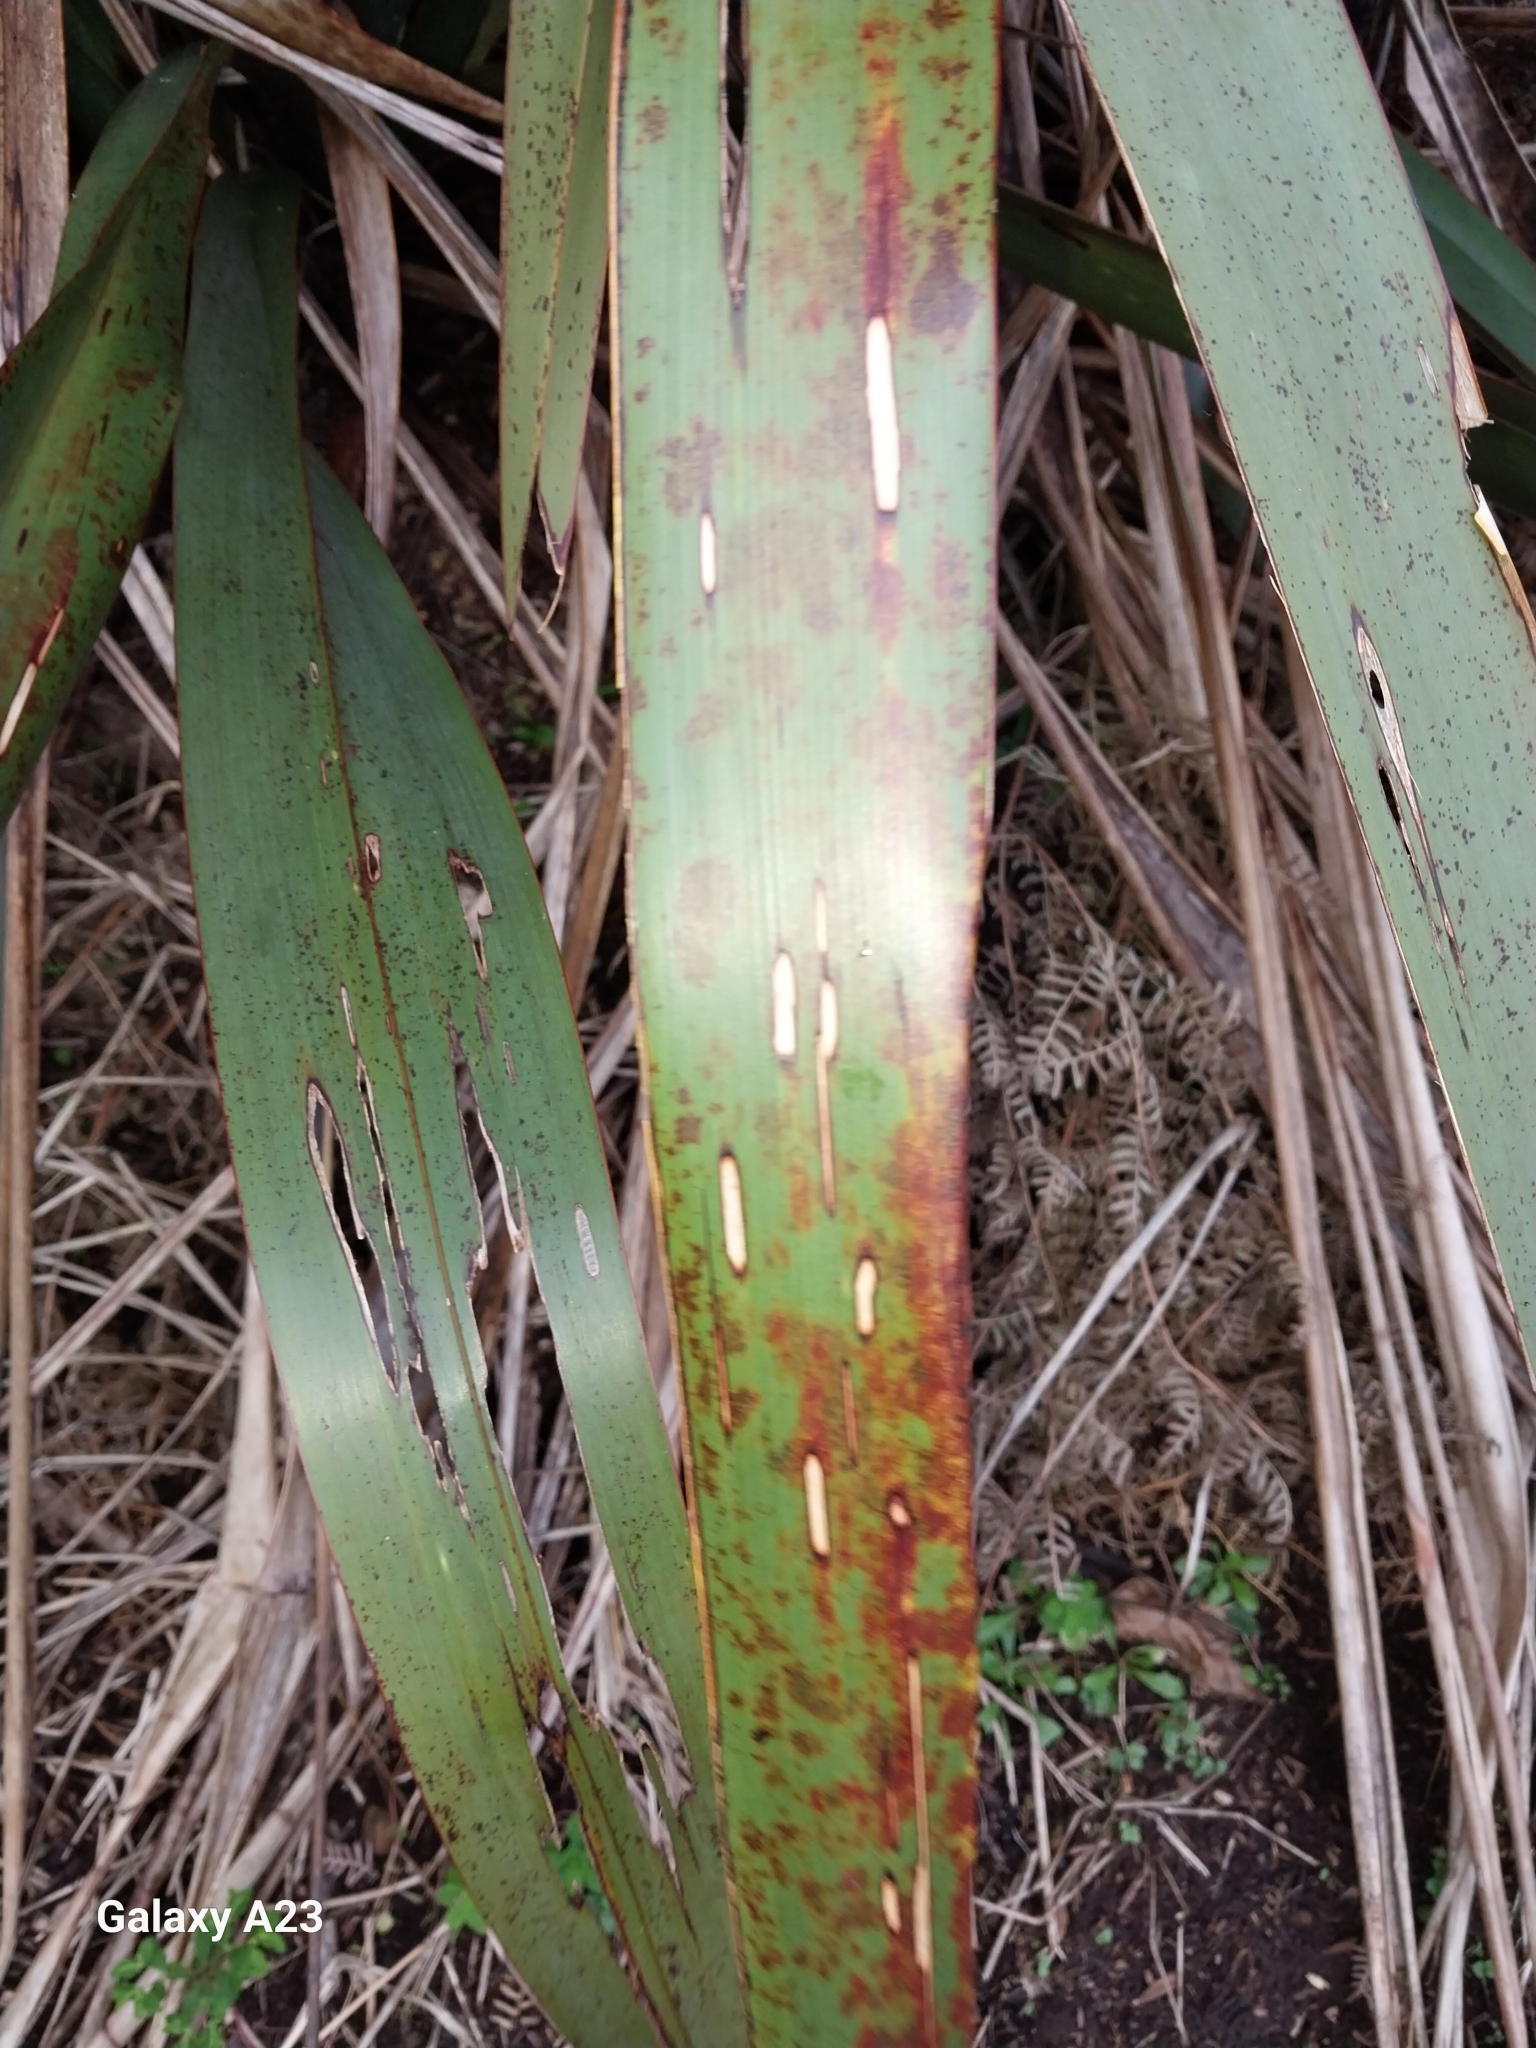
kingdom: Animalia
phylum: Arthropoda
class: Insecta
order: Lepidoptera
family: Geometridae
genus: Orthoclydon
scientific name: Orthoclydon praefectata
